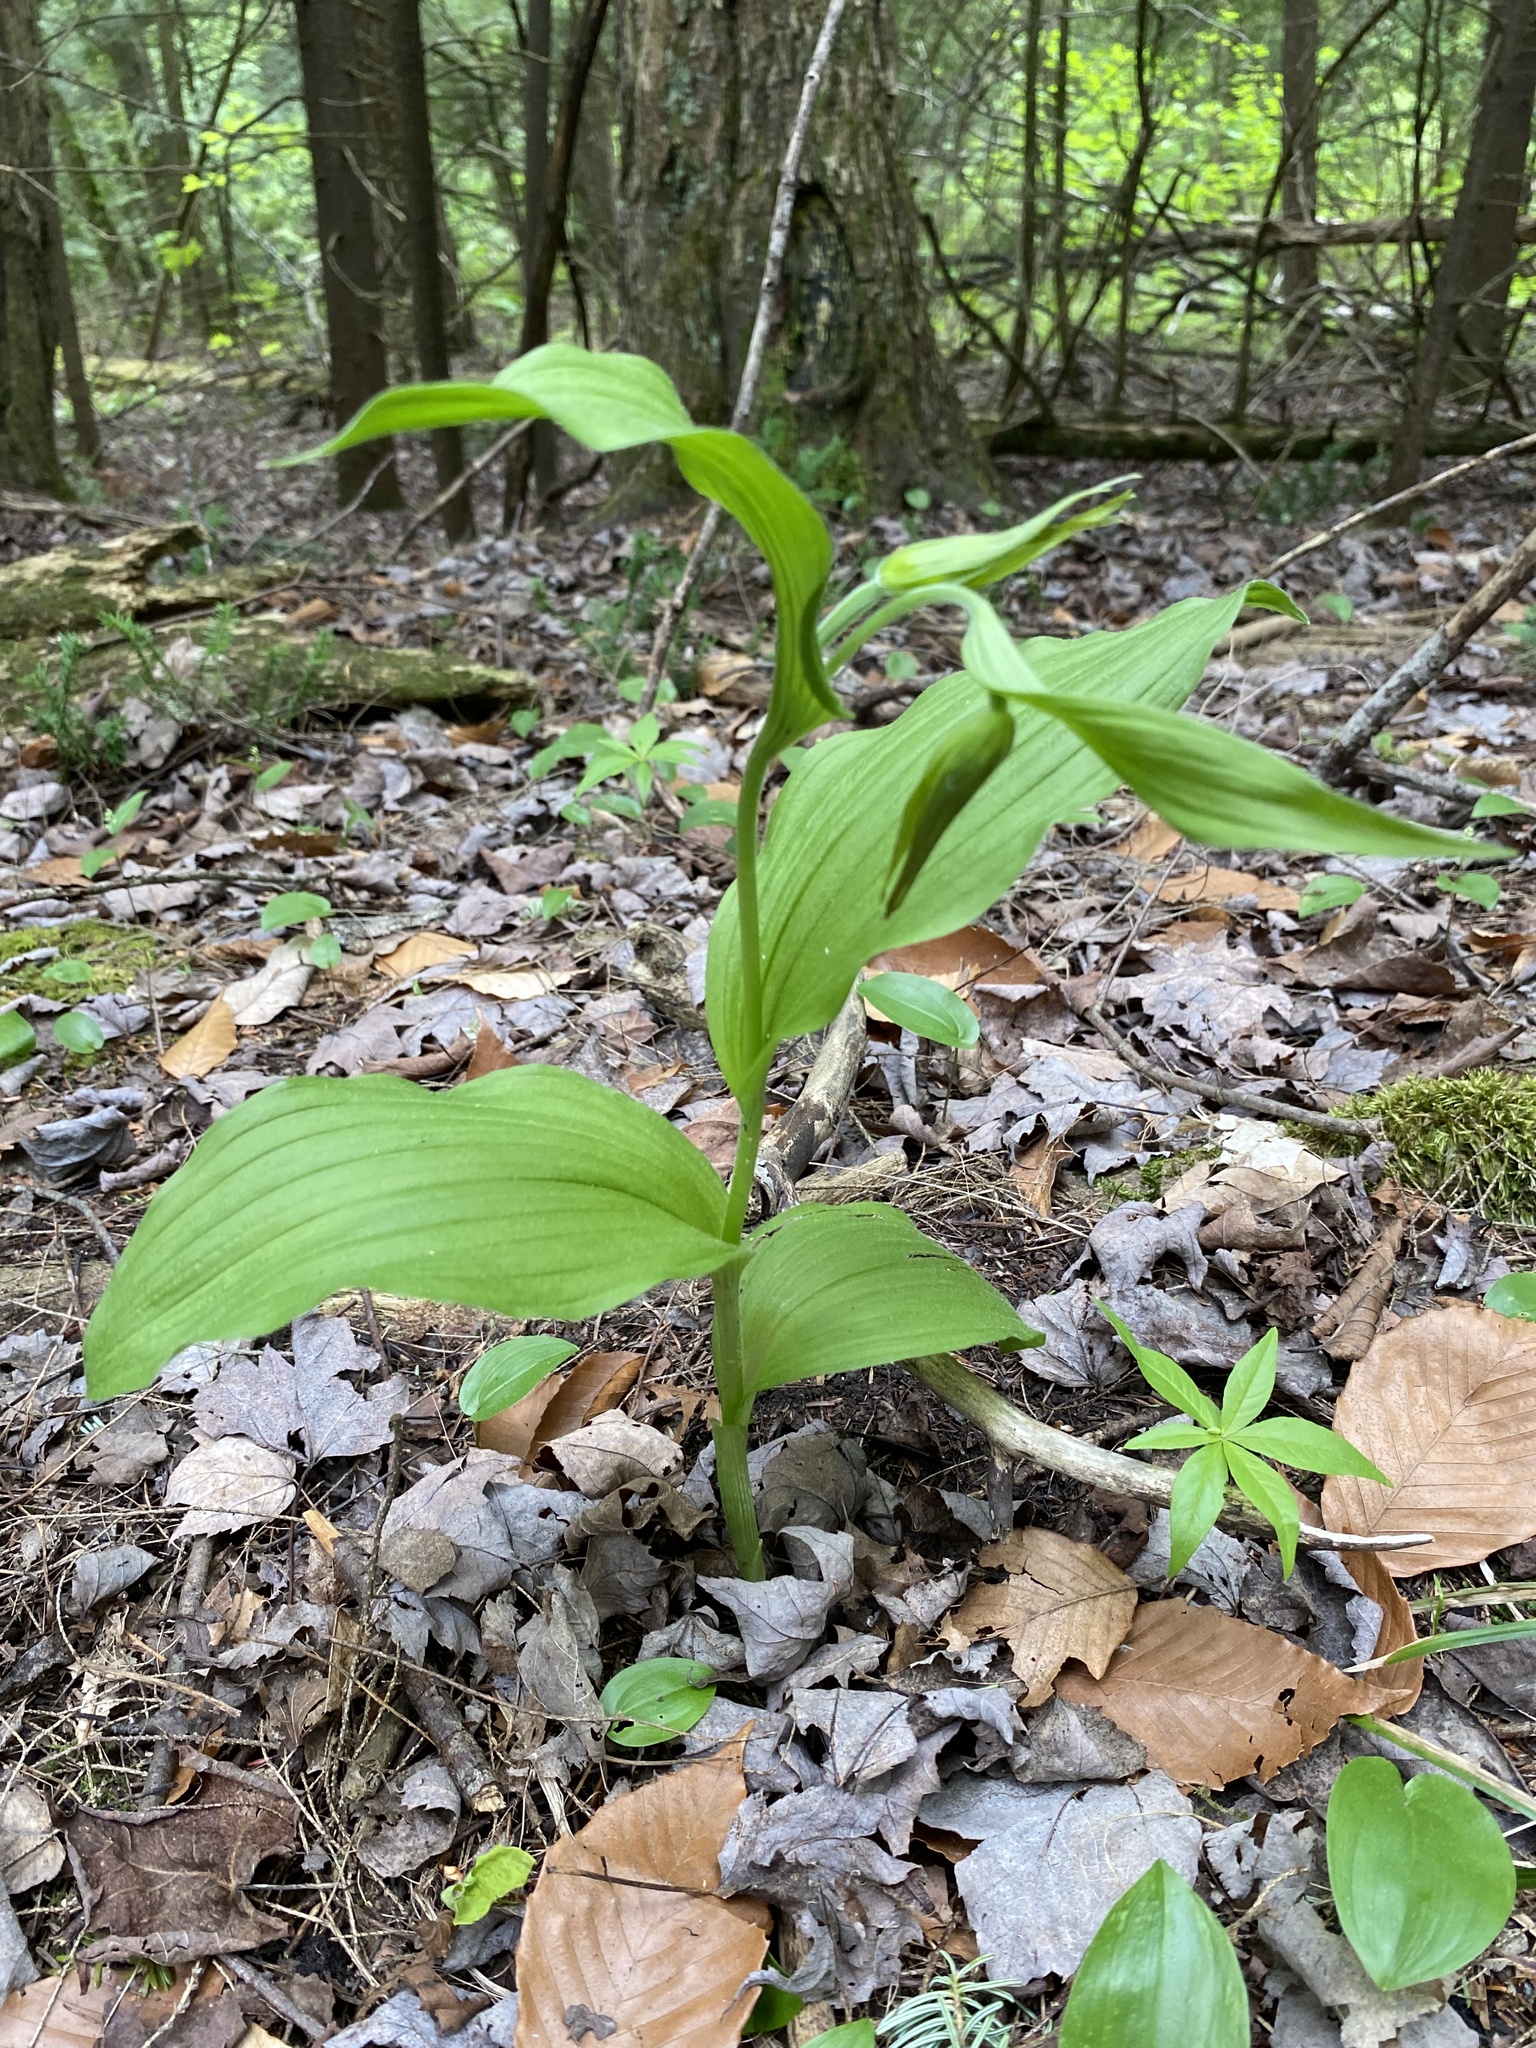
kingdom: Plantae
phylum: Tracheophyta
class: Liliopsida
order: Asparagales
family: Orchidaceae
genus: Cypripedium
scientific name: Cypripedium parviflorum
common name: American yellow lady's-slipper
